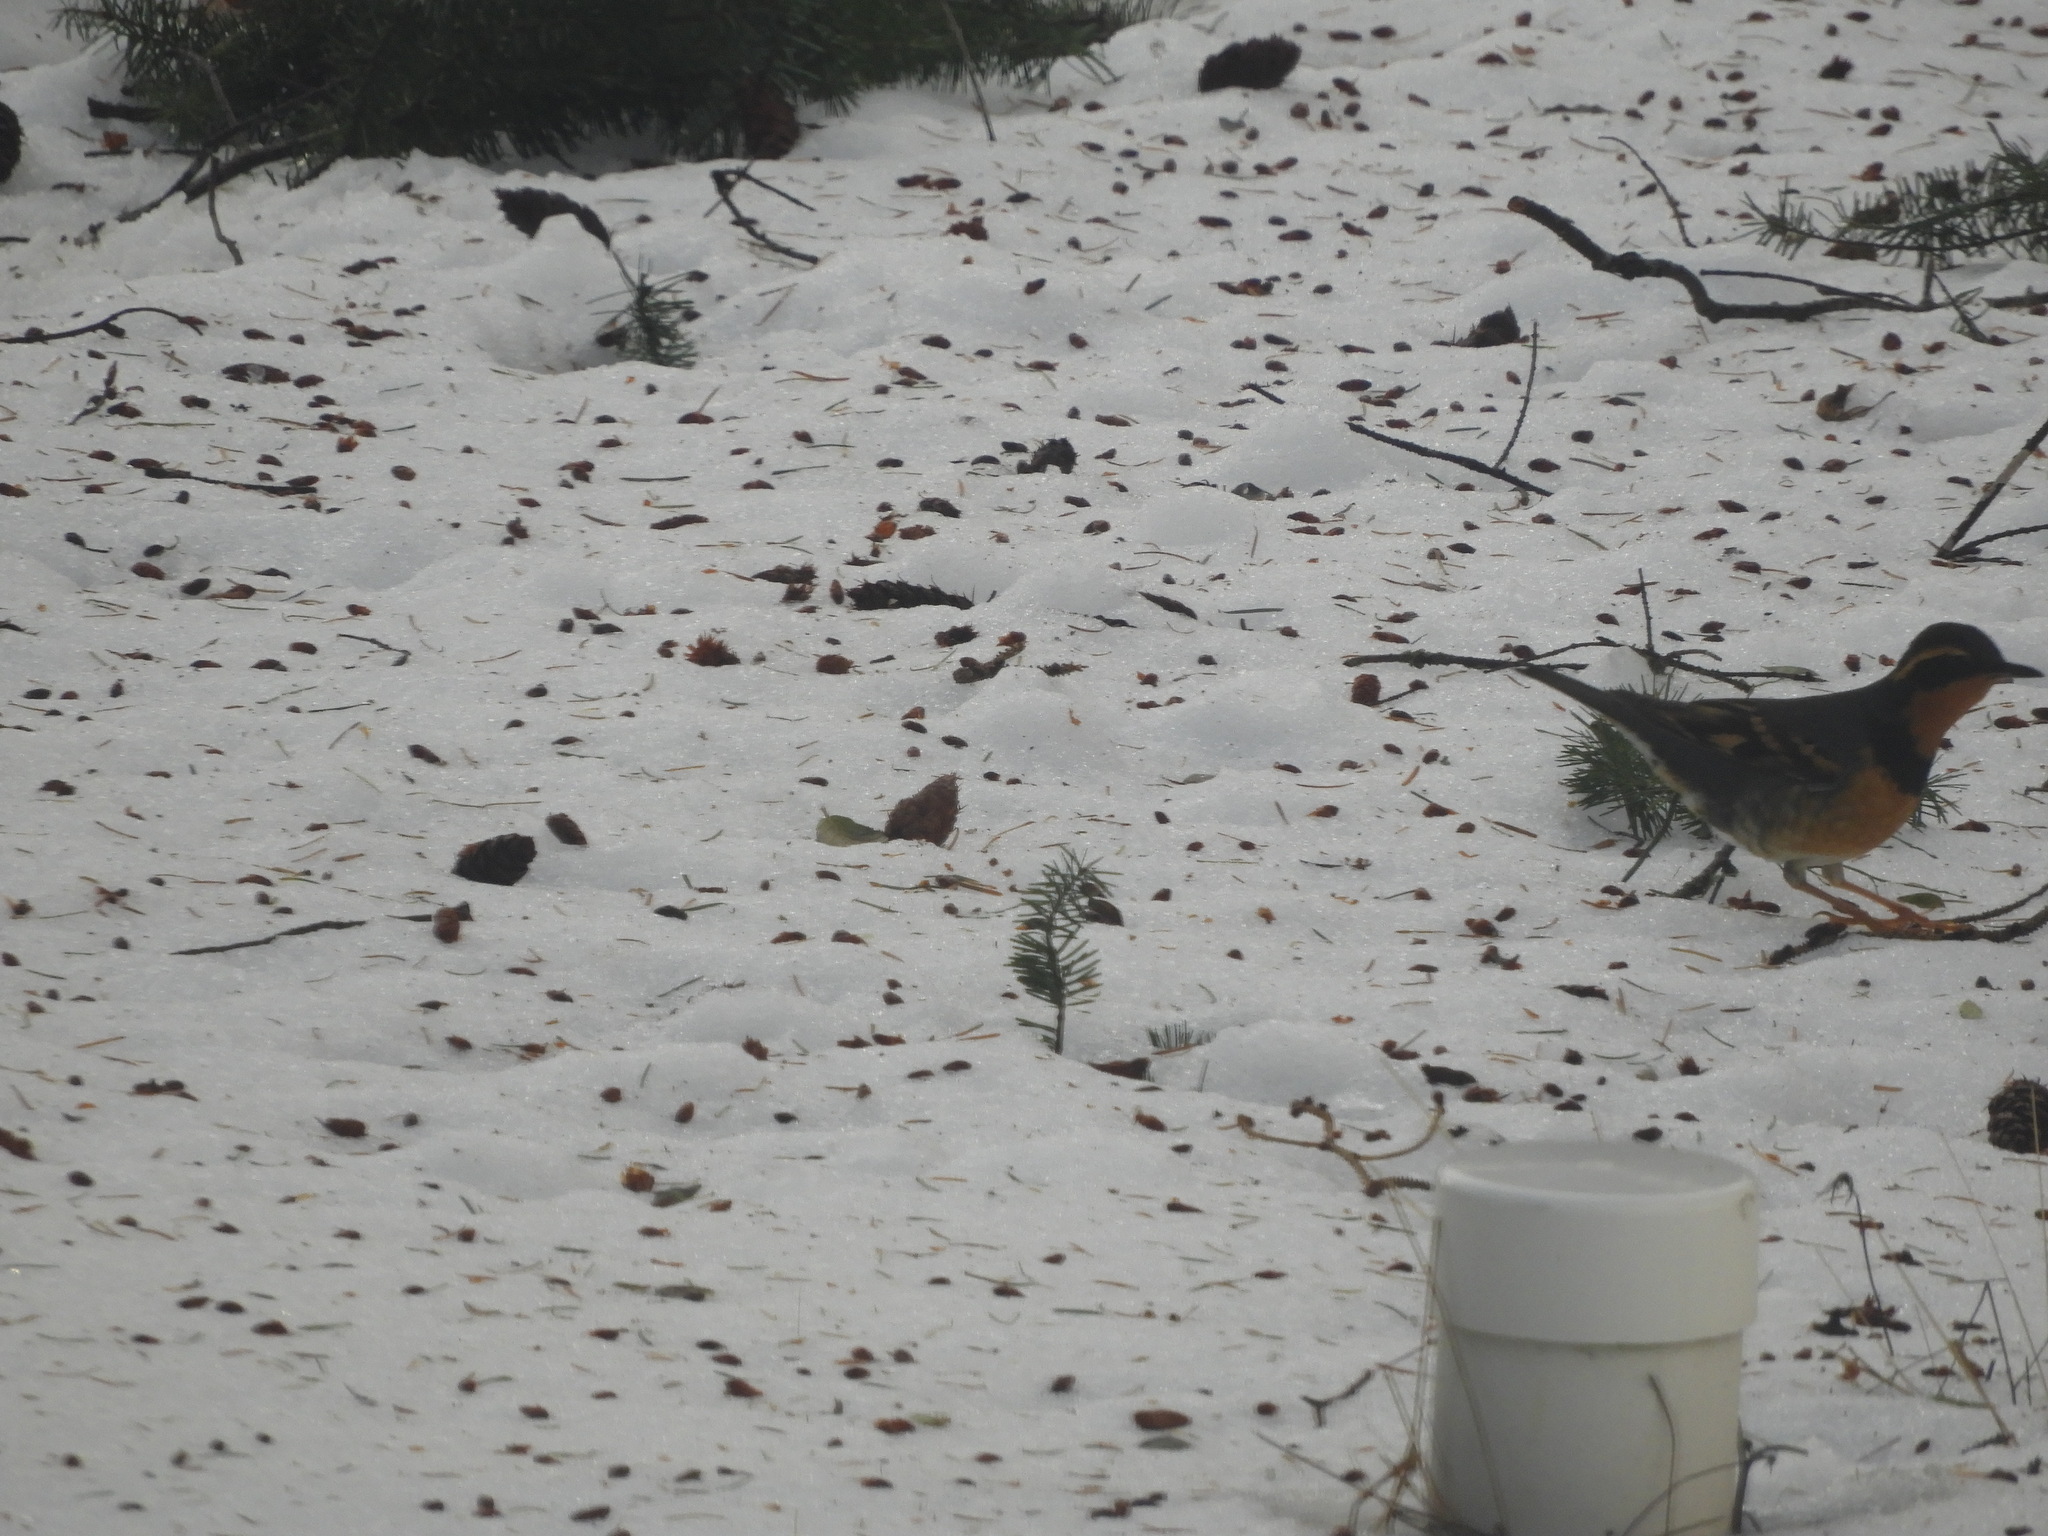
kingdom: Animalia
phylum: Chordata
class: Aves
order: Passeriformes
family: Turdidae
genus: Ixoreus
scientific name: Ixoreus naevius
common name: Varied thrush
